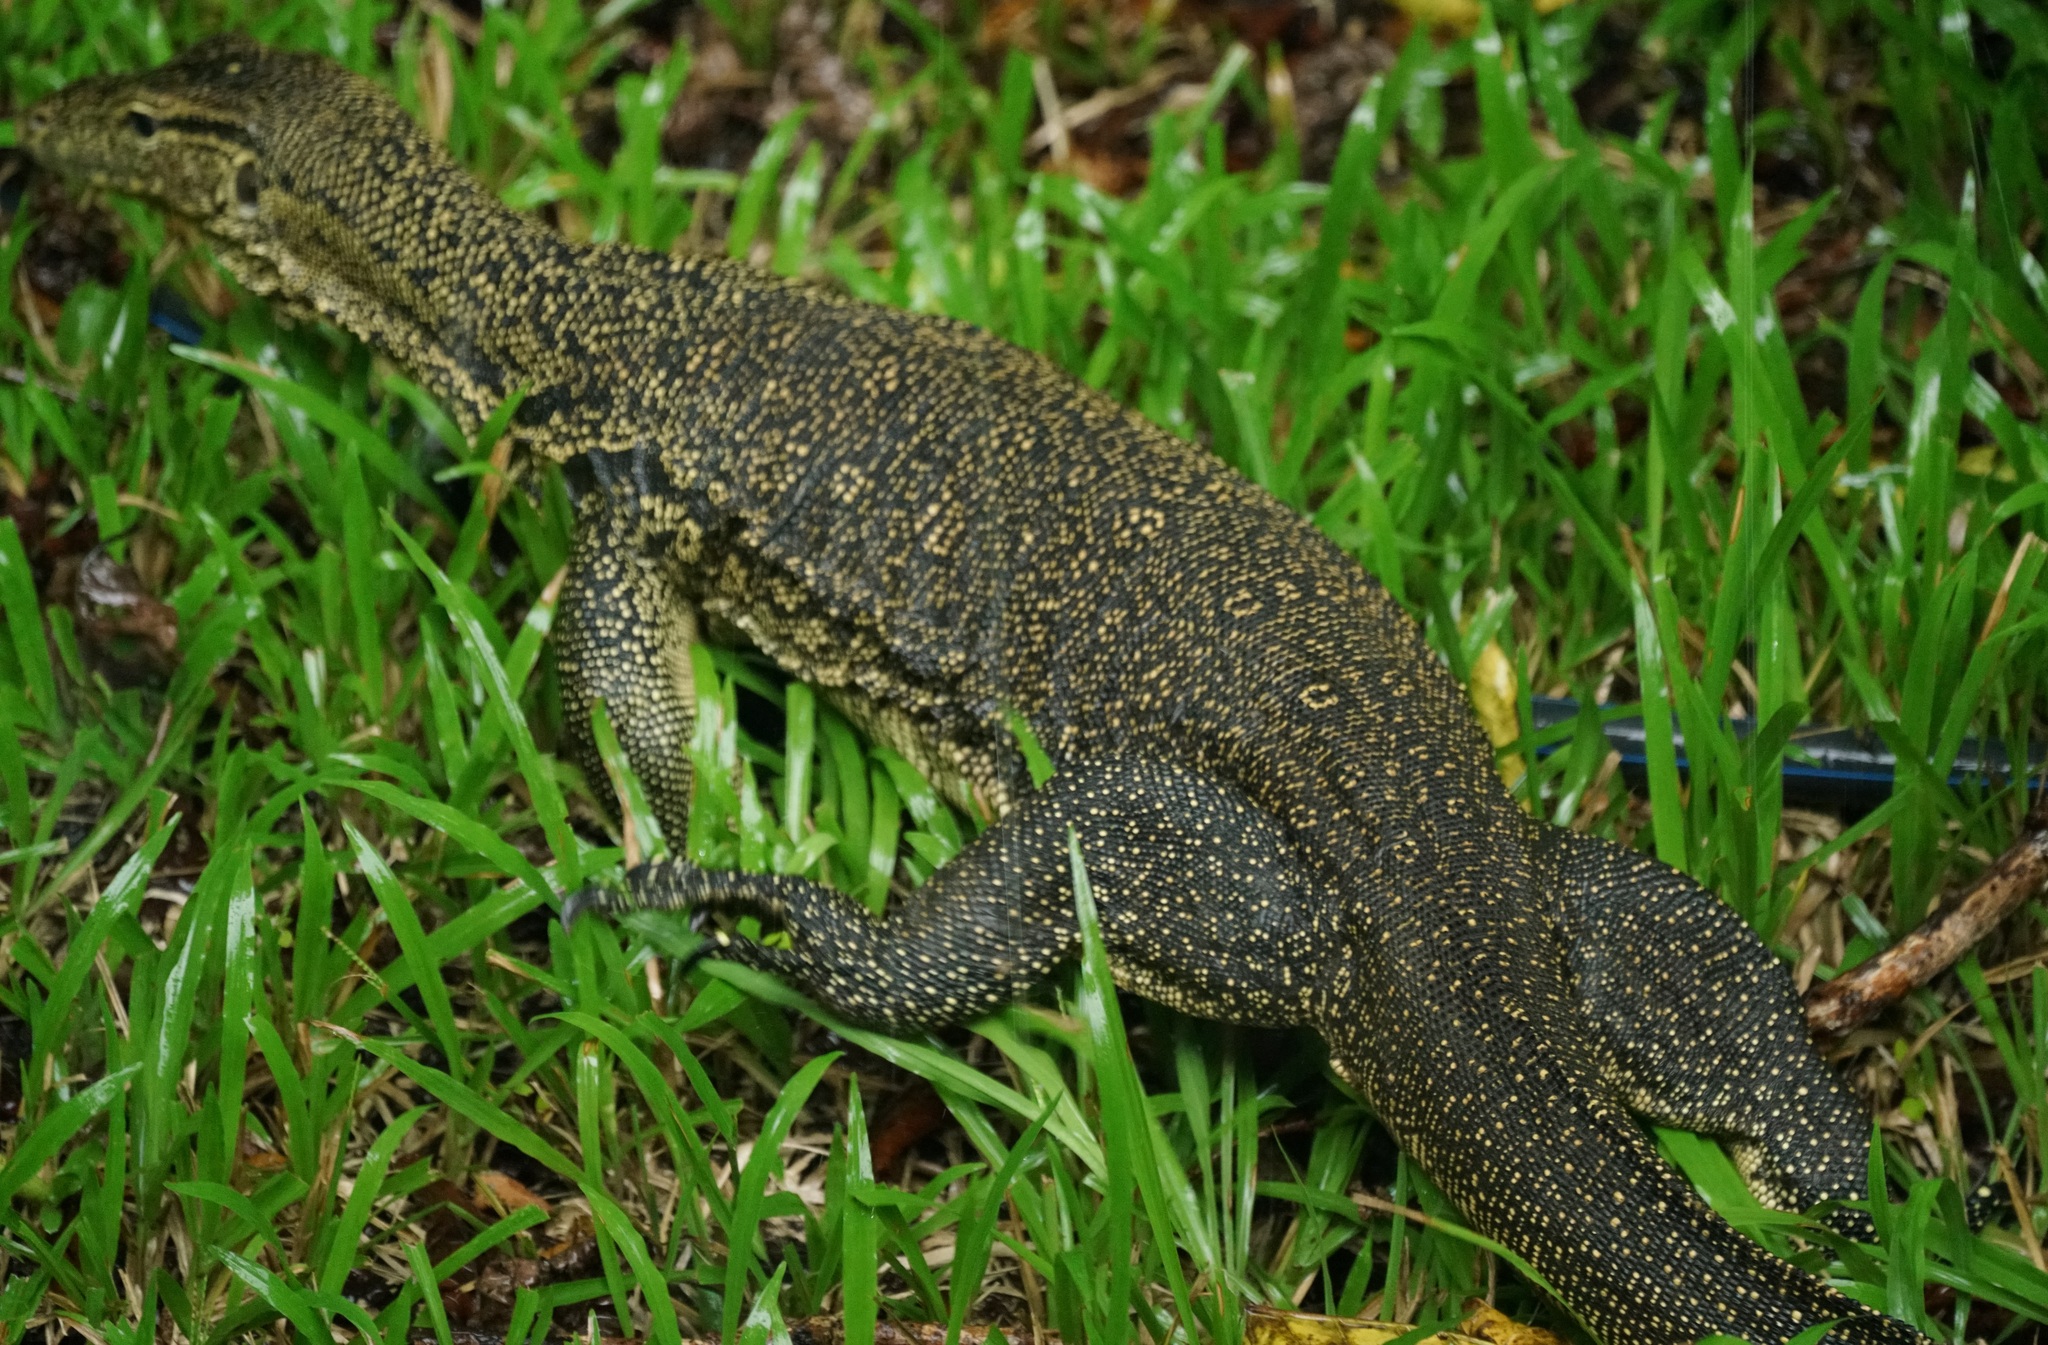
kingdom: Animalia
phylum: Chordata
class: Squamata
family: Varanidae
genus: Varanus
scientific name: Varanus salvator
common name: Common water monitor
